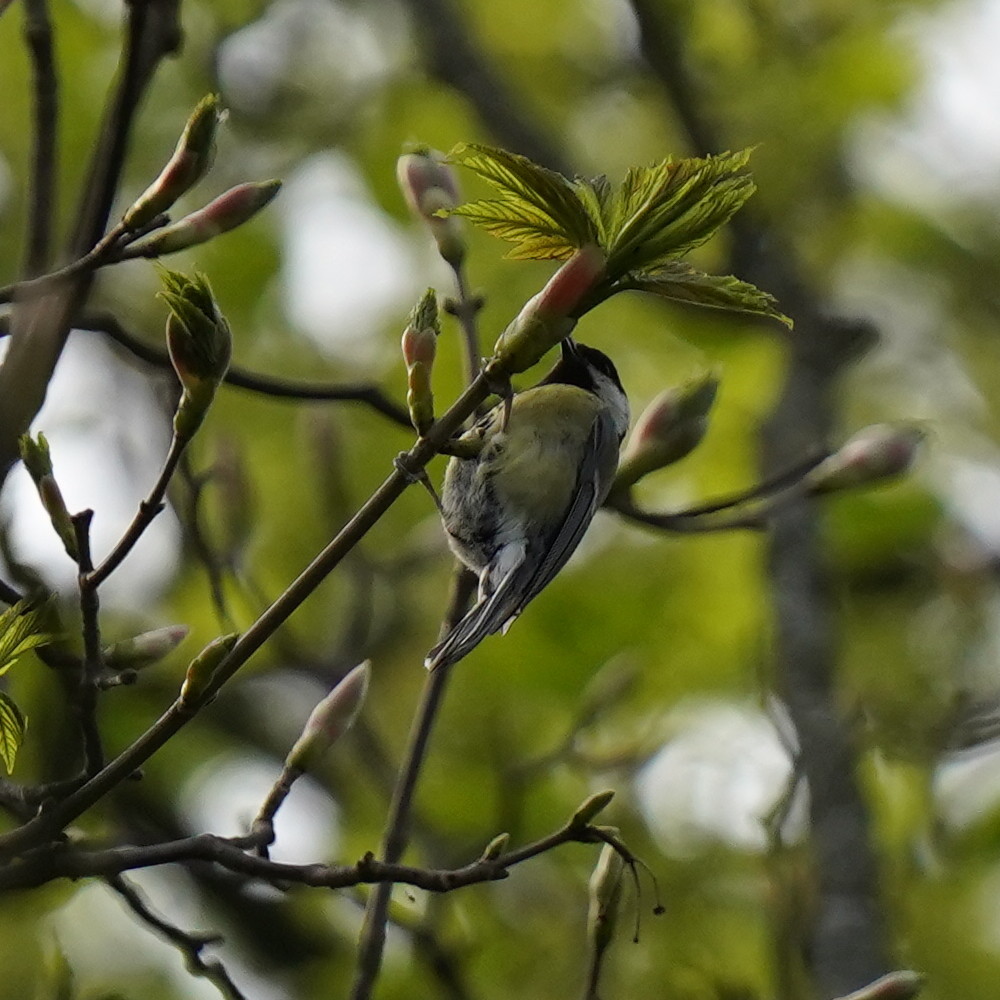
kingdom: Animalia
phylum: Chordata
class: Aves
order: Passeriformes
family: Paridae
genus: Parus
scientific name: Parus major
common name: Great tit
